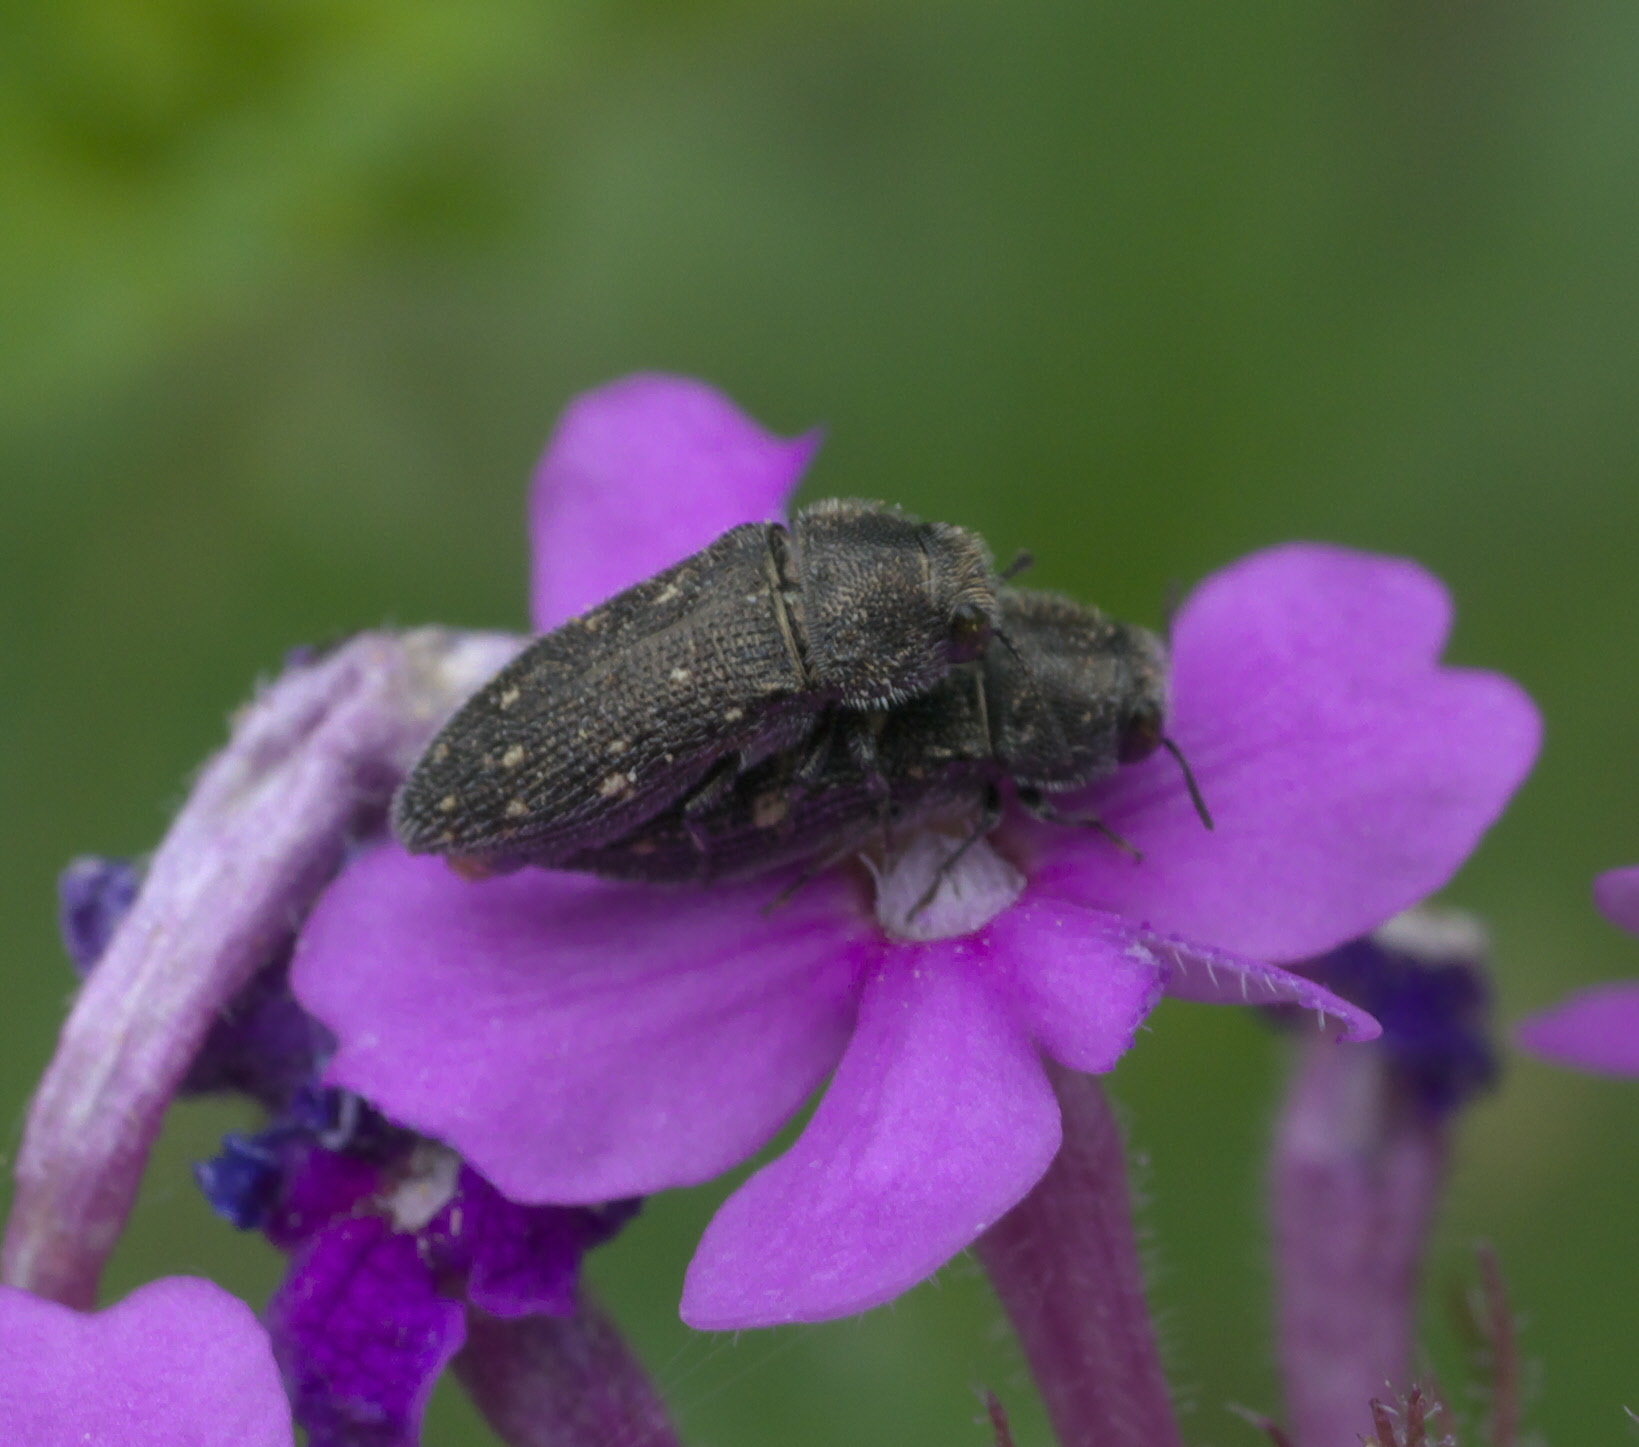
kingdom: Animalia
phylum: Arthropoda
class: Insecta
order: Coleoptera
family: Buprestidae
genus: Acmaeodera
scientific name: Acmaeodera tubulus
